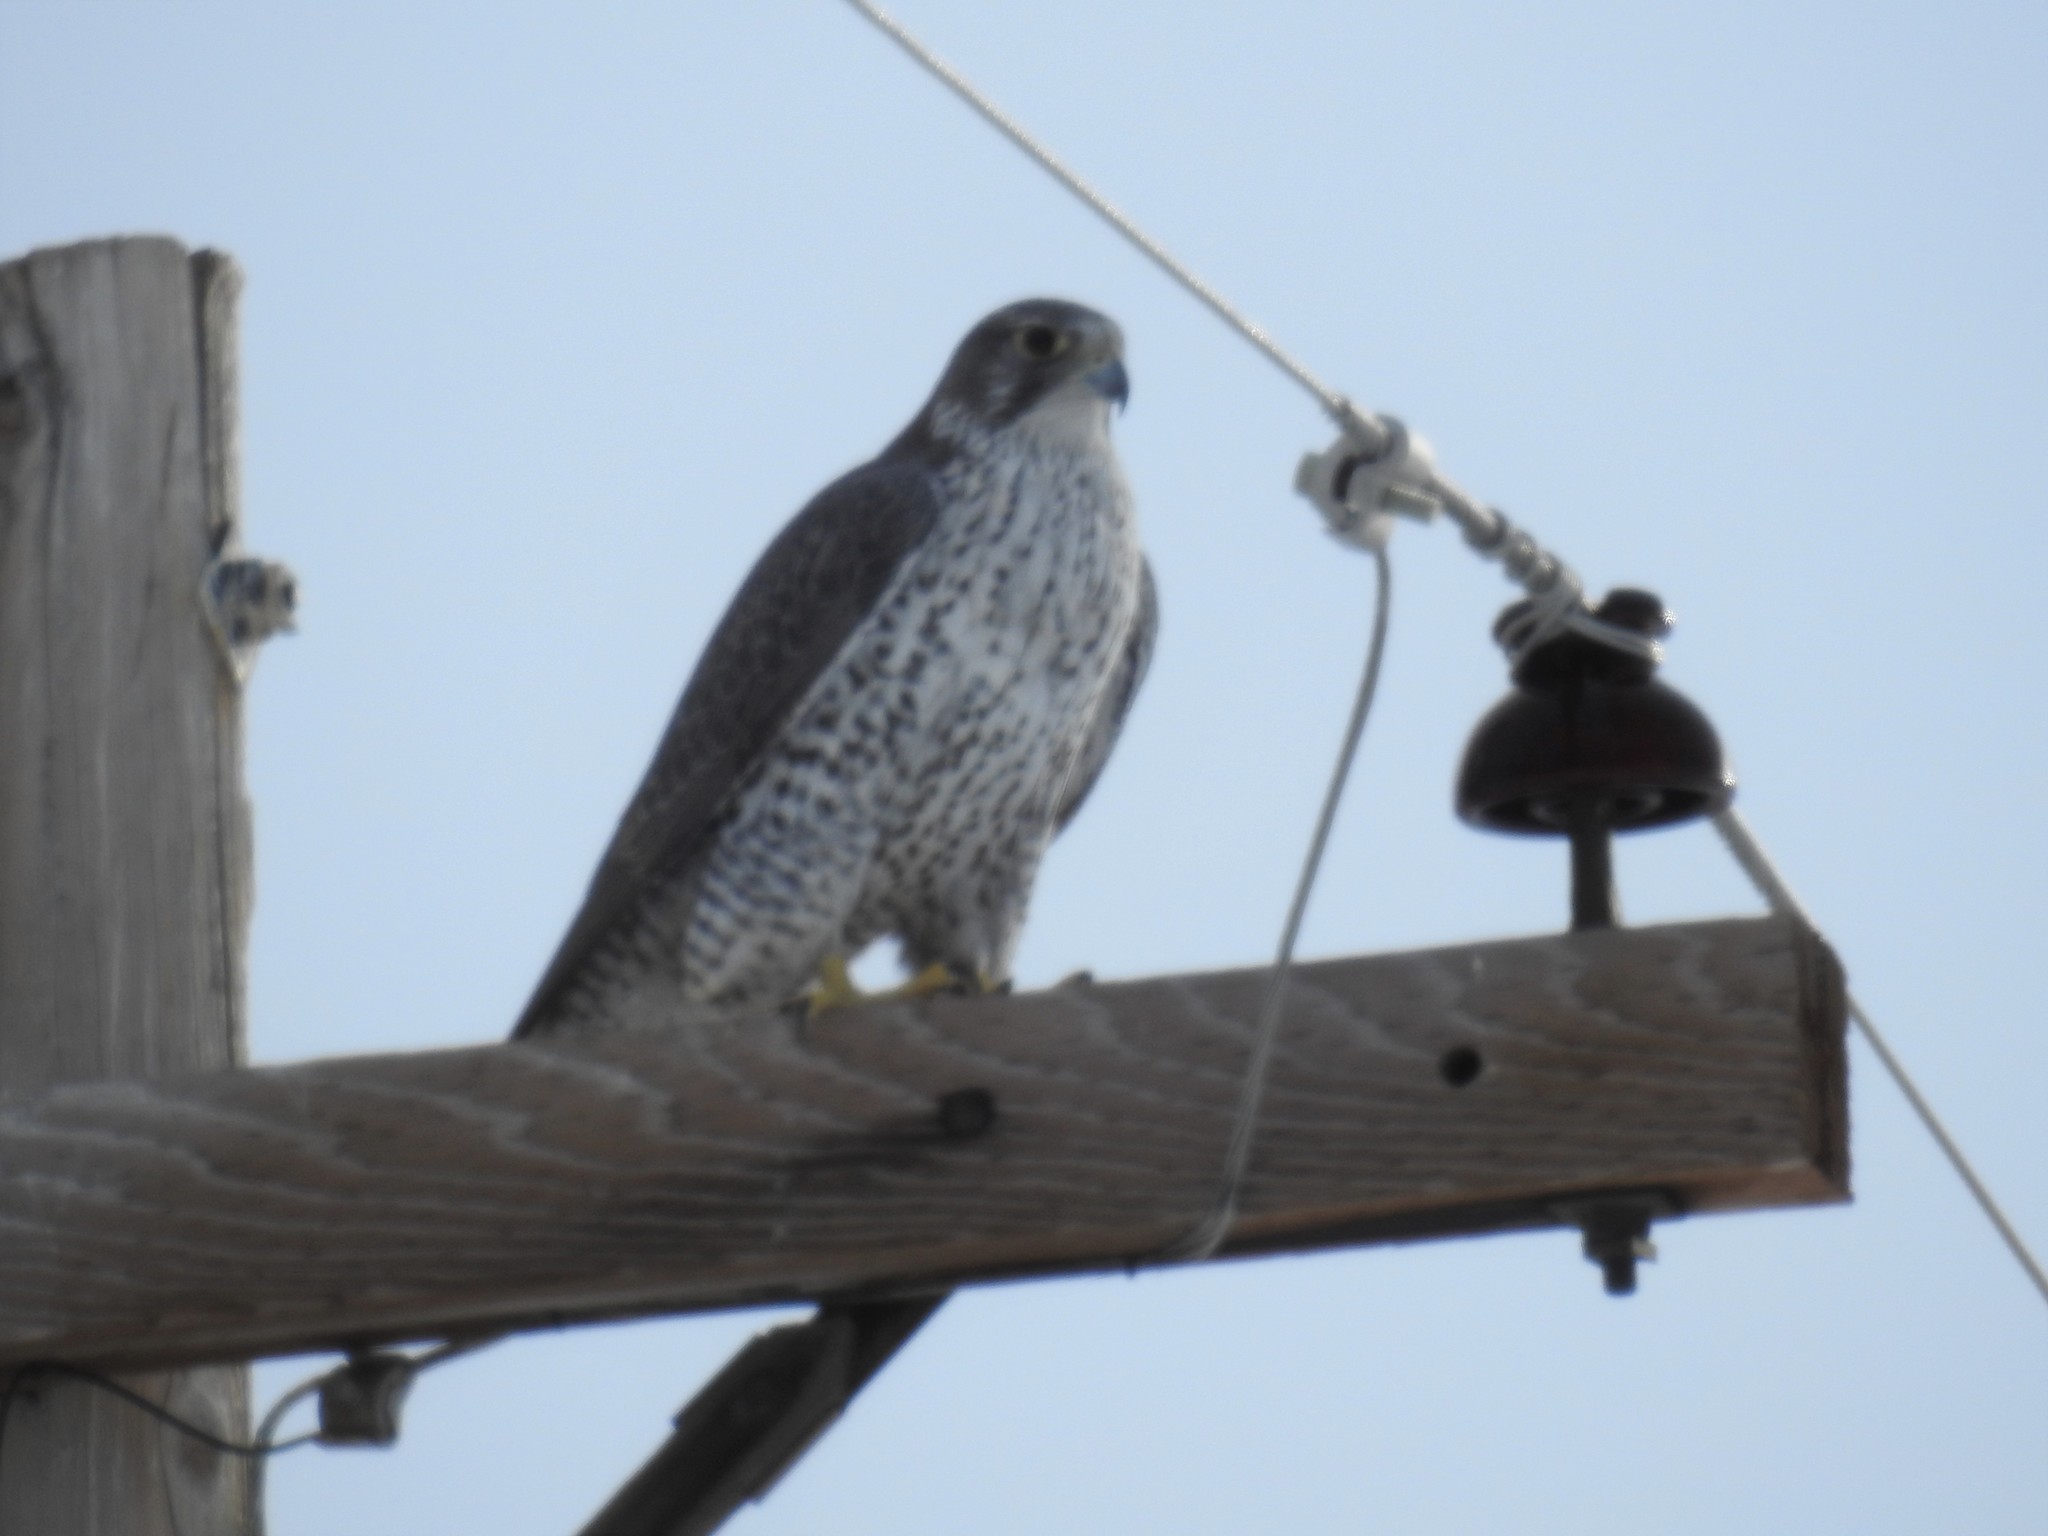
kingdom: Animalia
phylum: Chordata
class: Aves
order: Falconiformes
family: Falconidae
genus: Falco
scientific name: Falco rusticolus
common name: Gyrfalcon
